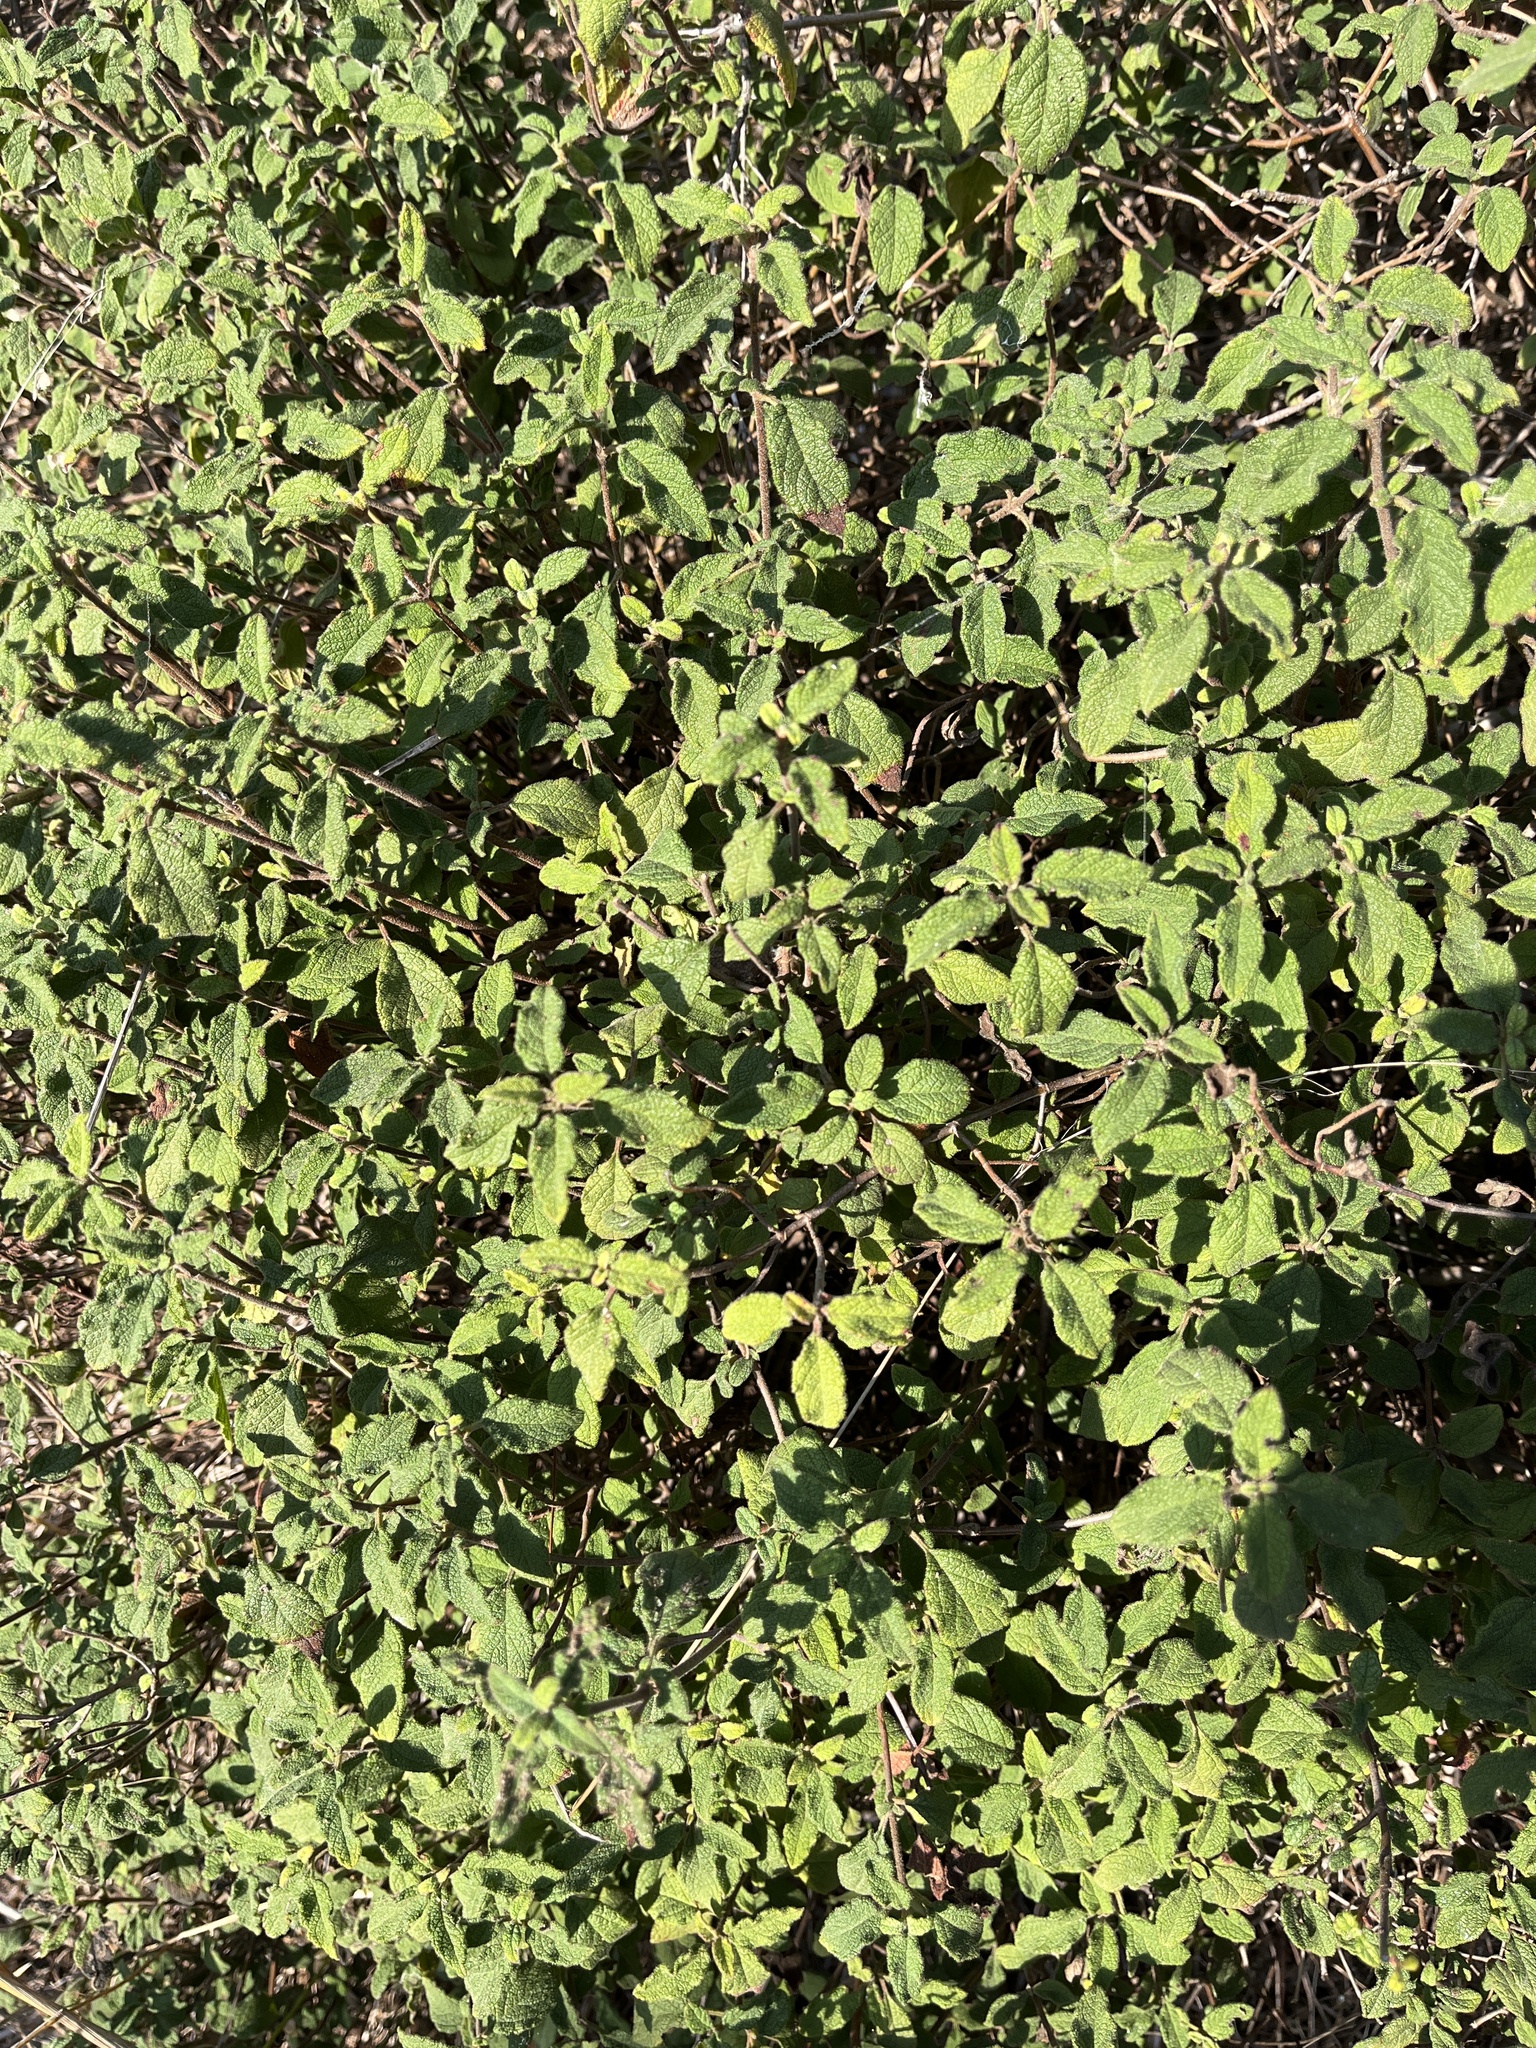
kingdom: Plantae
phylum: Tracheophyta
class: Magnoliopsida
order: Malvales
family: Cistaceae
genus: Cistus
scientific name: Cistus salviifolius
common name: Salvia cistus
